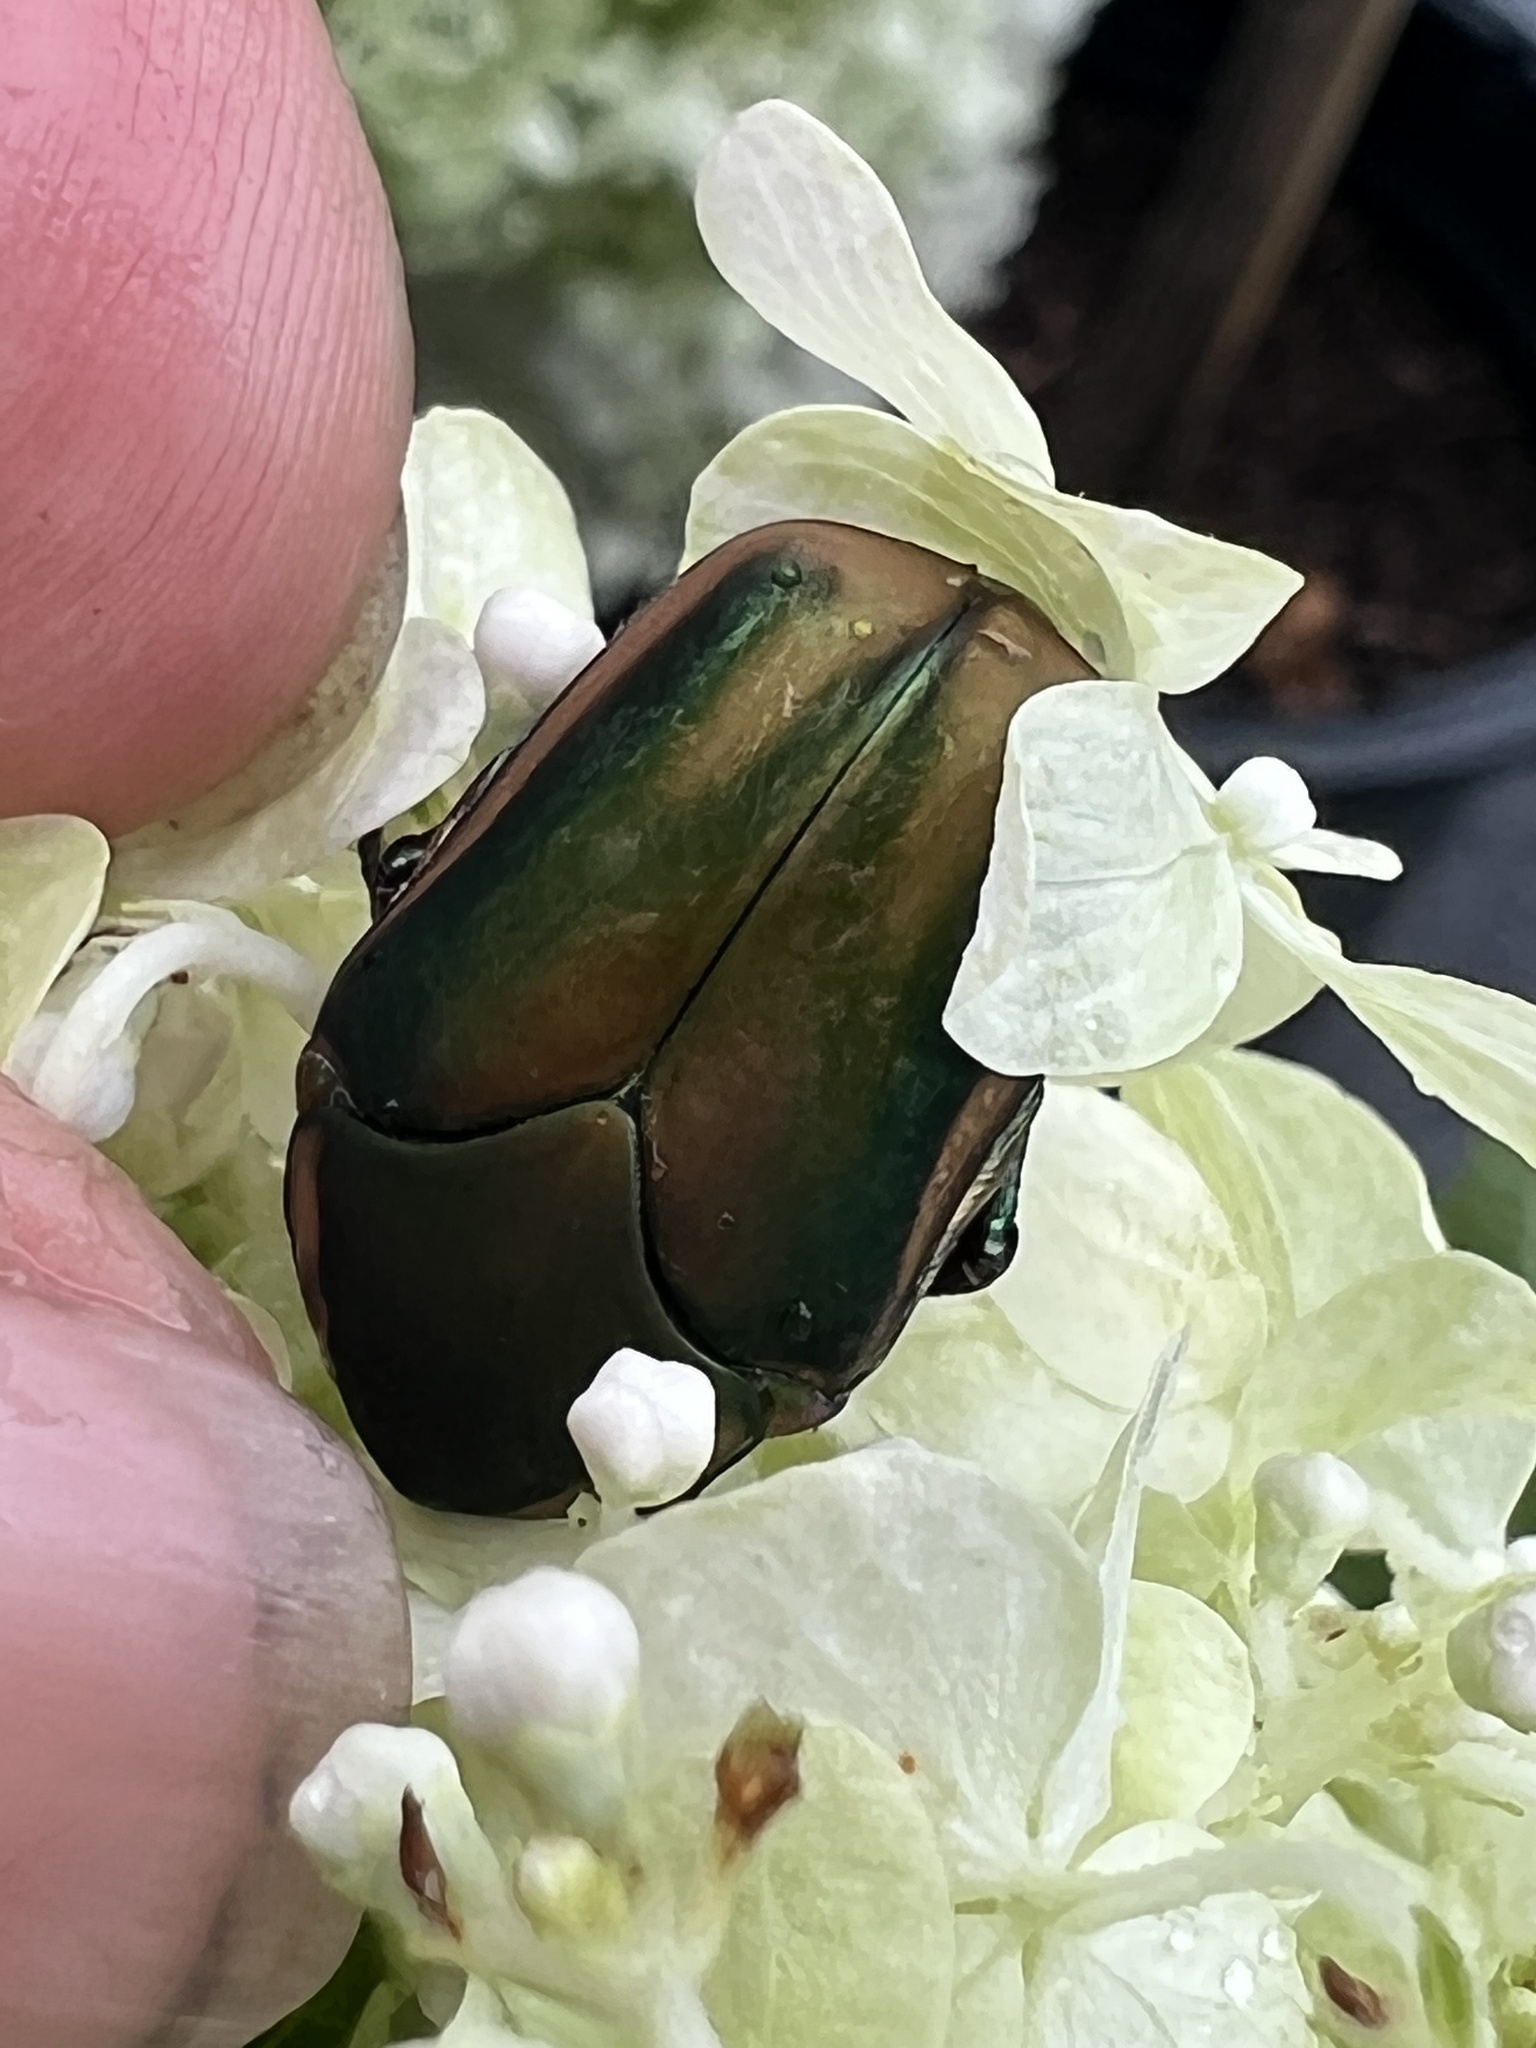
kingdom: Animalia
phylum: Arthropoda
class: Insecta
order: Coleoptera
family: Scarabaeidae
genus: Cotinis
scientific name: Cotinis nitida
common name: Common green june beetle
